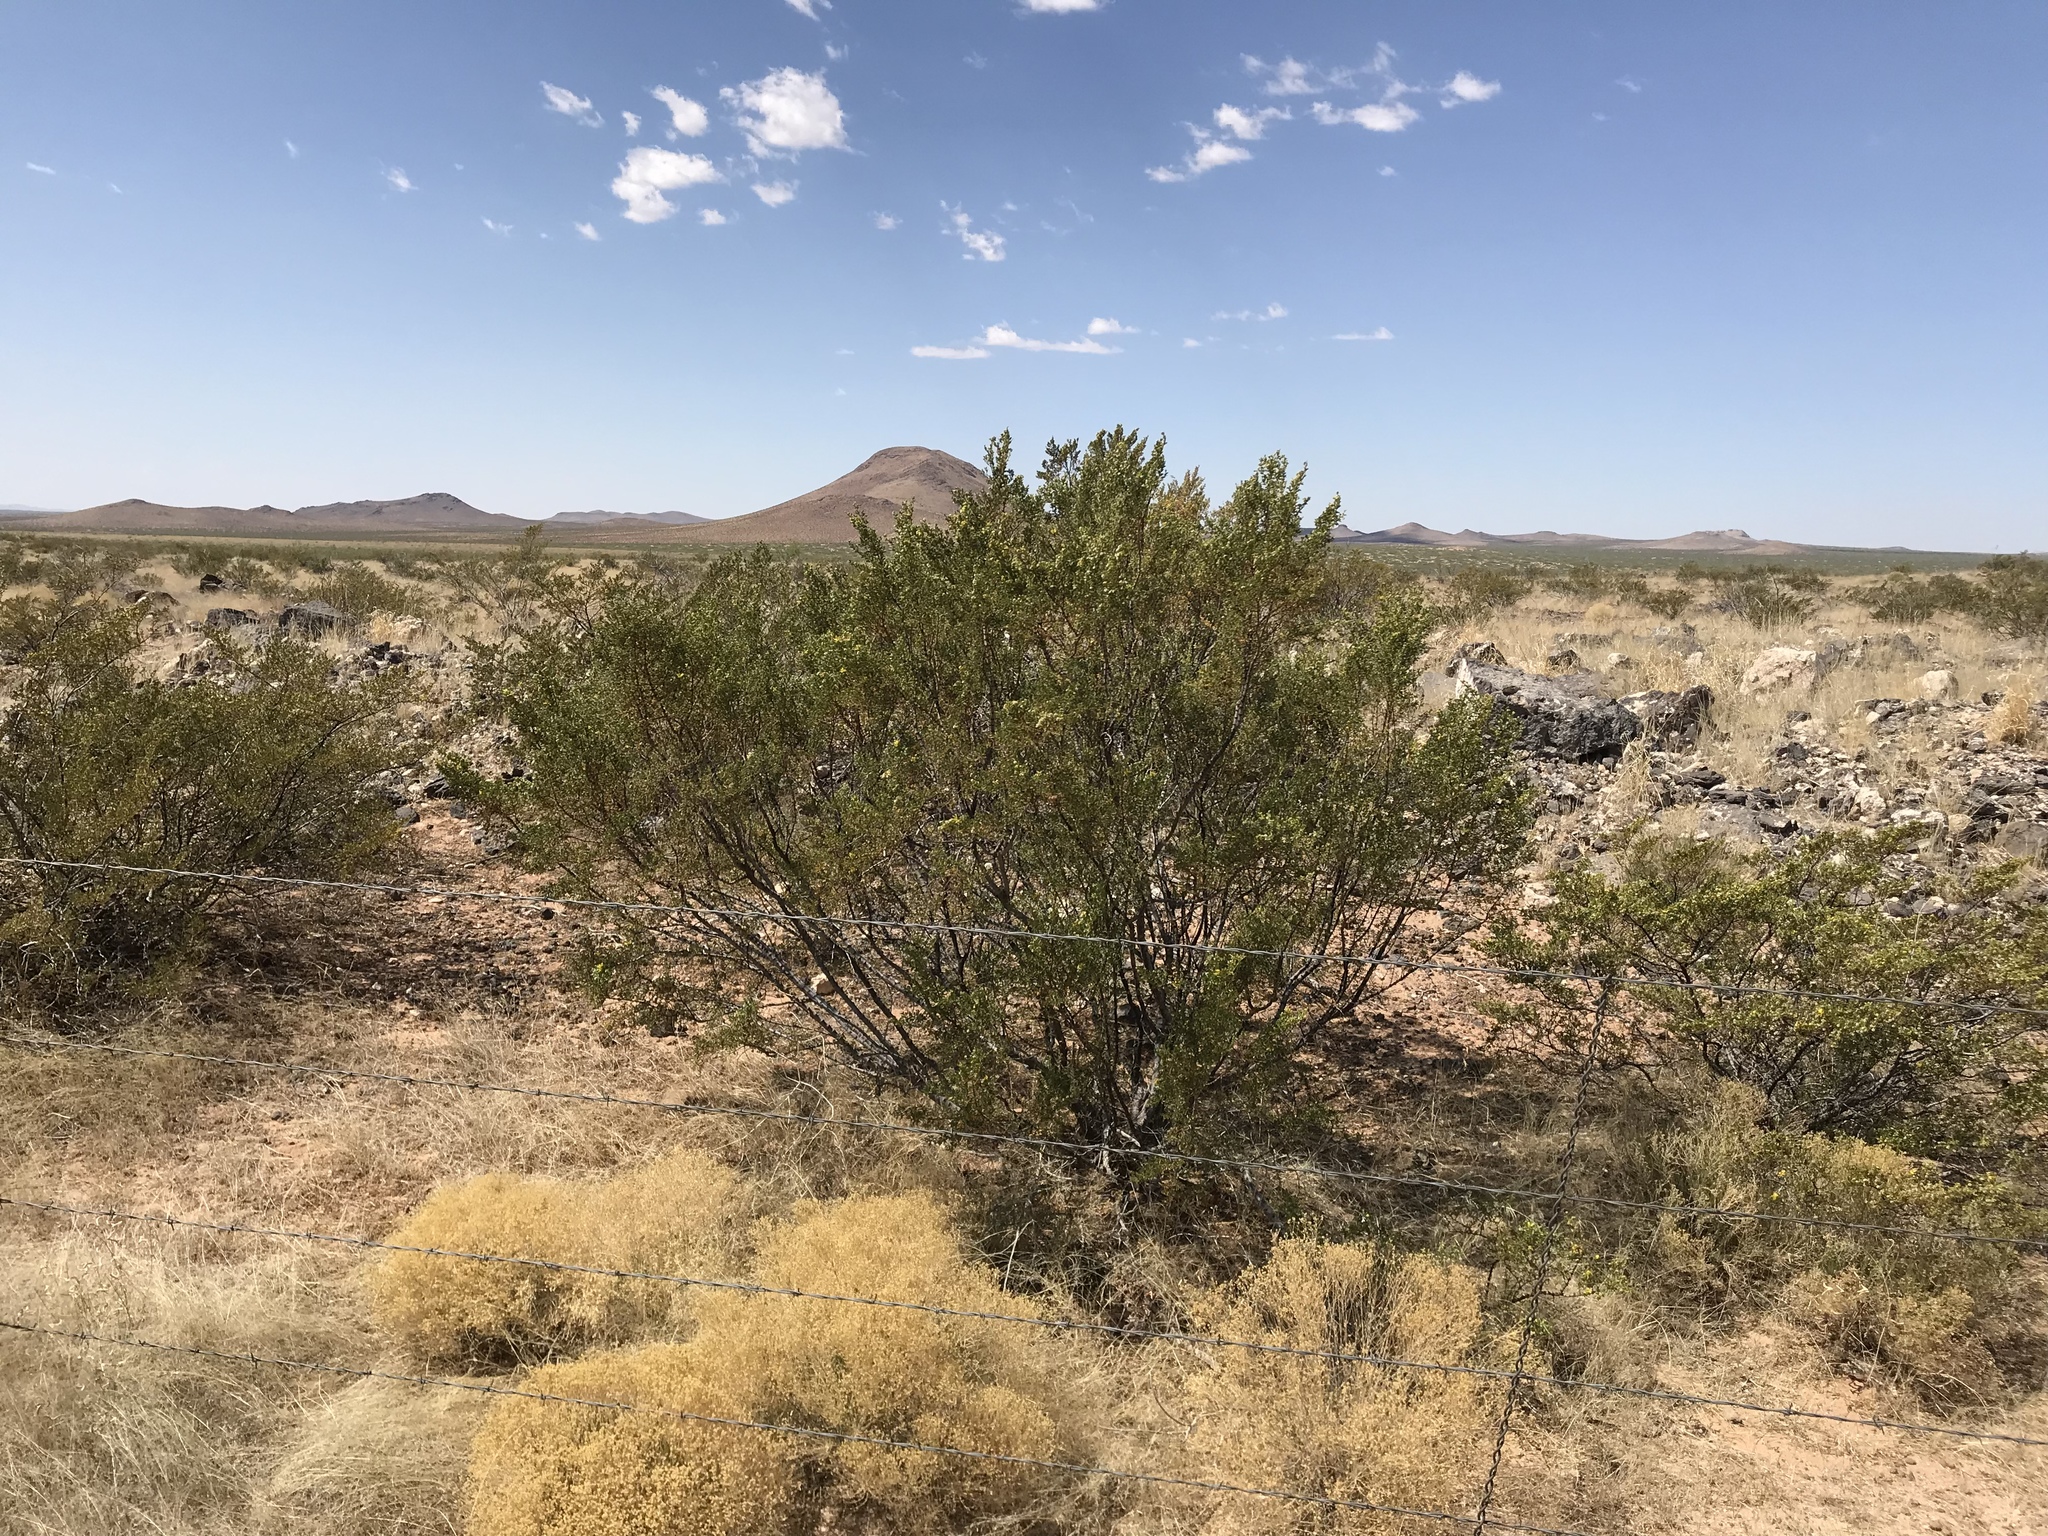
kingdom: Plantae
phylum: Tracheophyta
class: Magnoliopsida
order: Zygophyllales
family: Zygophyllaceae
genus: Larrea
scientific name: Larrea tridentata
